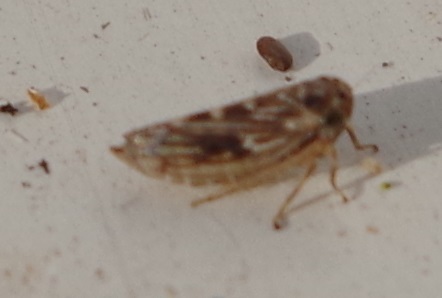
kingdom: Animalia
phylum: Arthropoda
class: Insecta
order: Hemiptera
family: Cicadellidae
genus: Agallia
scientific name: Agallia consobrina
